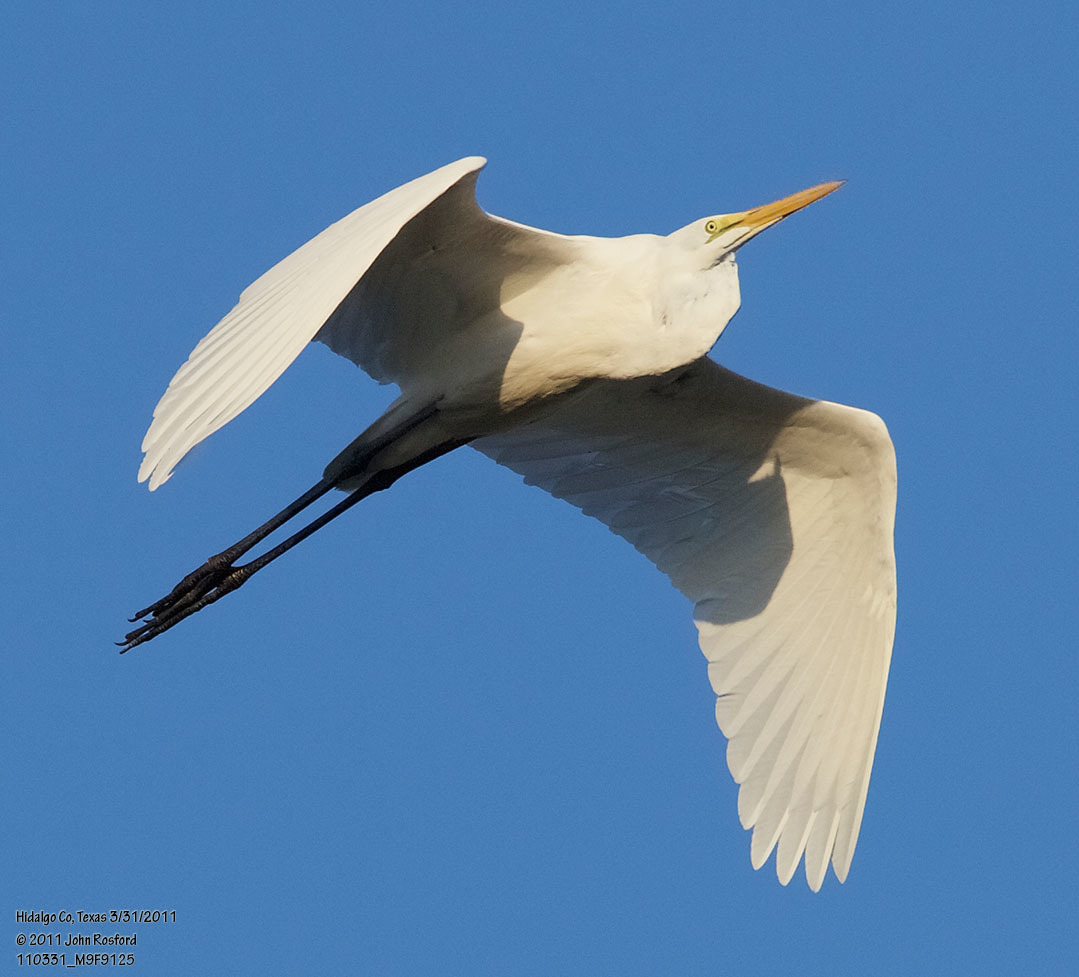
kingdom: Animalia
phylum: Chordata
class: Aves
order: Pelecaniformes
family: Ardeidae
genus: Ardea
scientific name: Ardea alba
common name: Great egret
